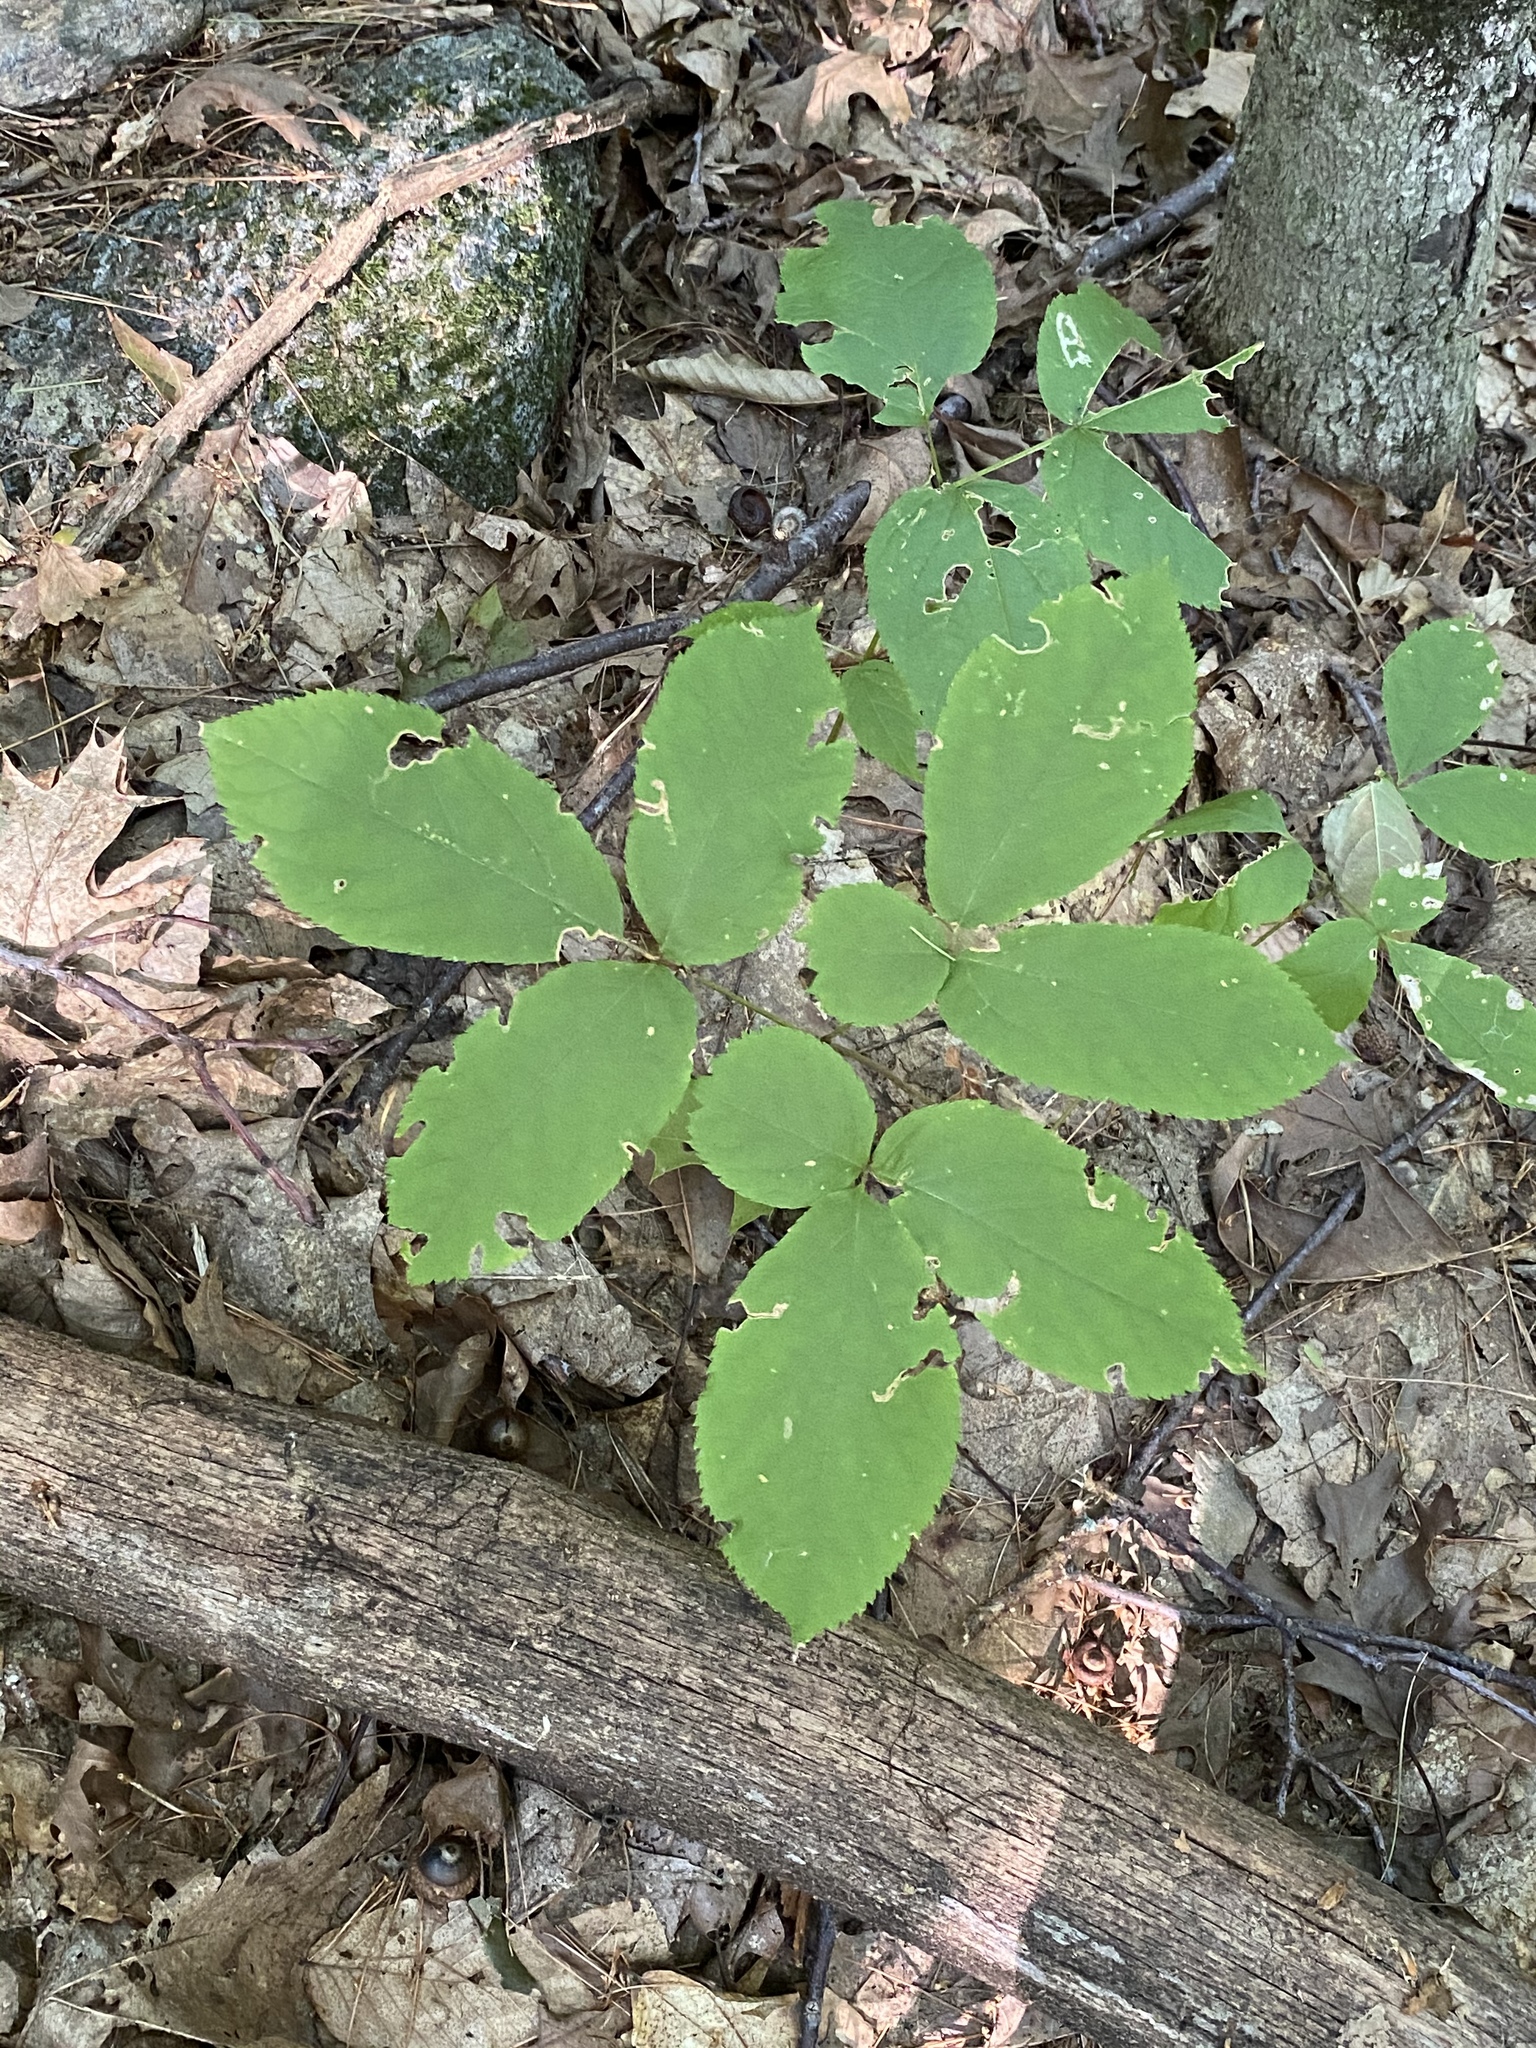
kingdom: Plantae
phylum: Tracheophyta
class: Magnoliopsida
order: Apiales
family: Araliaceae
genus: Aralia
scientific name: Aralia nudicaulis
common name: Wild sarsaparilla
